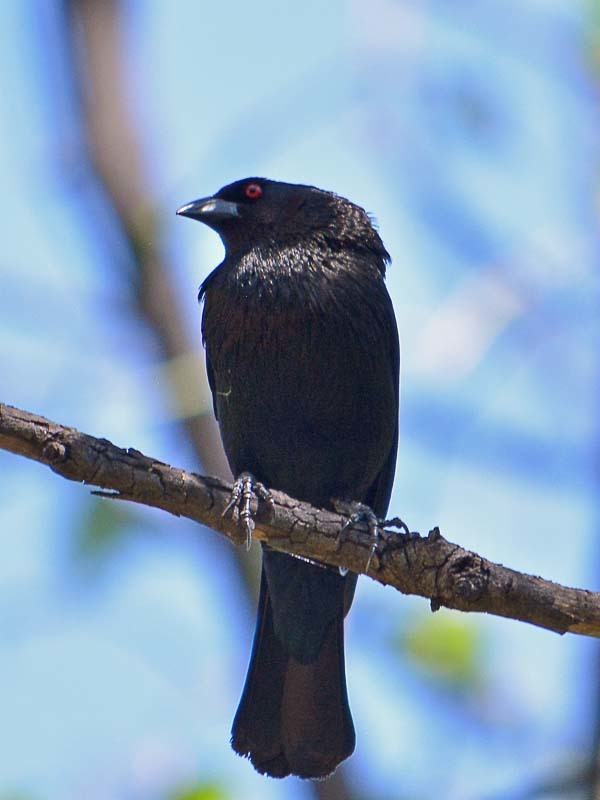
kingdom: Animalia
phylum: Chordata
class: Aves
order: Passeriformes
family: Icteridae
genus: Molothrus
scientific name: Molothrus aeneus
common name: Bronzed cowbird
